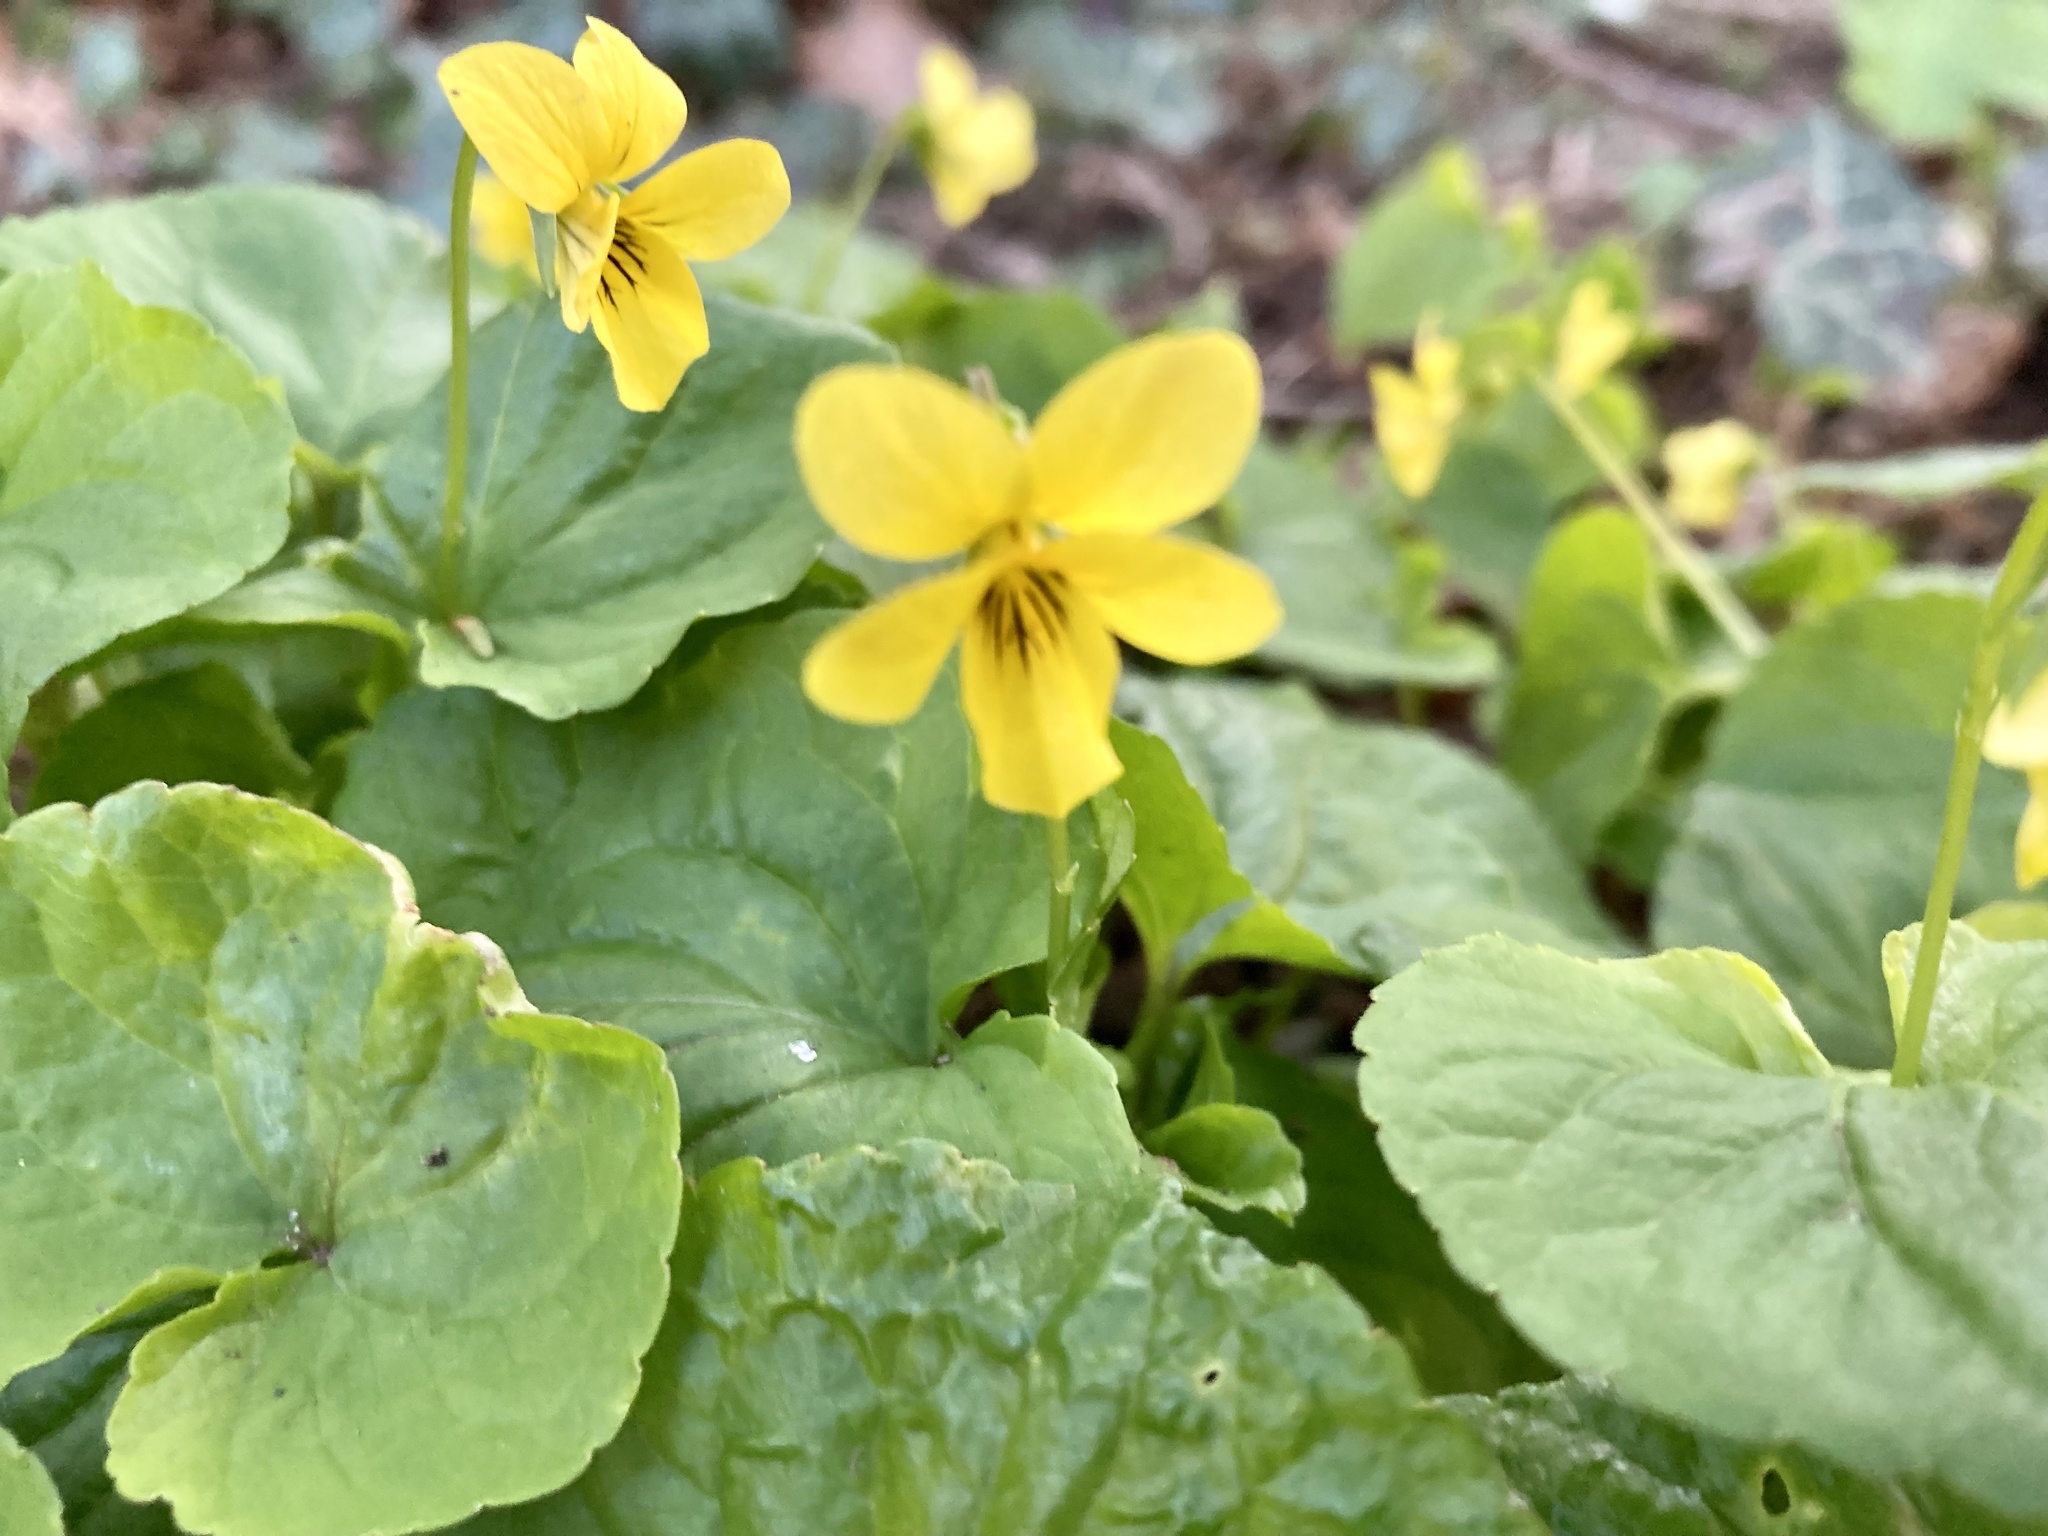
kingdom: Plantae
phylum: Tracheophyta
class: Magnoliopsida
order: Malpighiales
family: Violaceae
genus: Viola
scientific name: Viola glabella
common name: Stream violet
